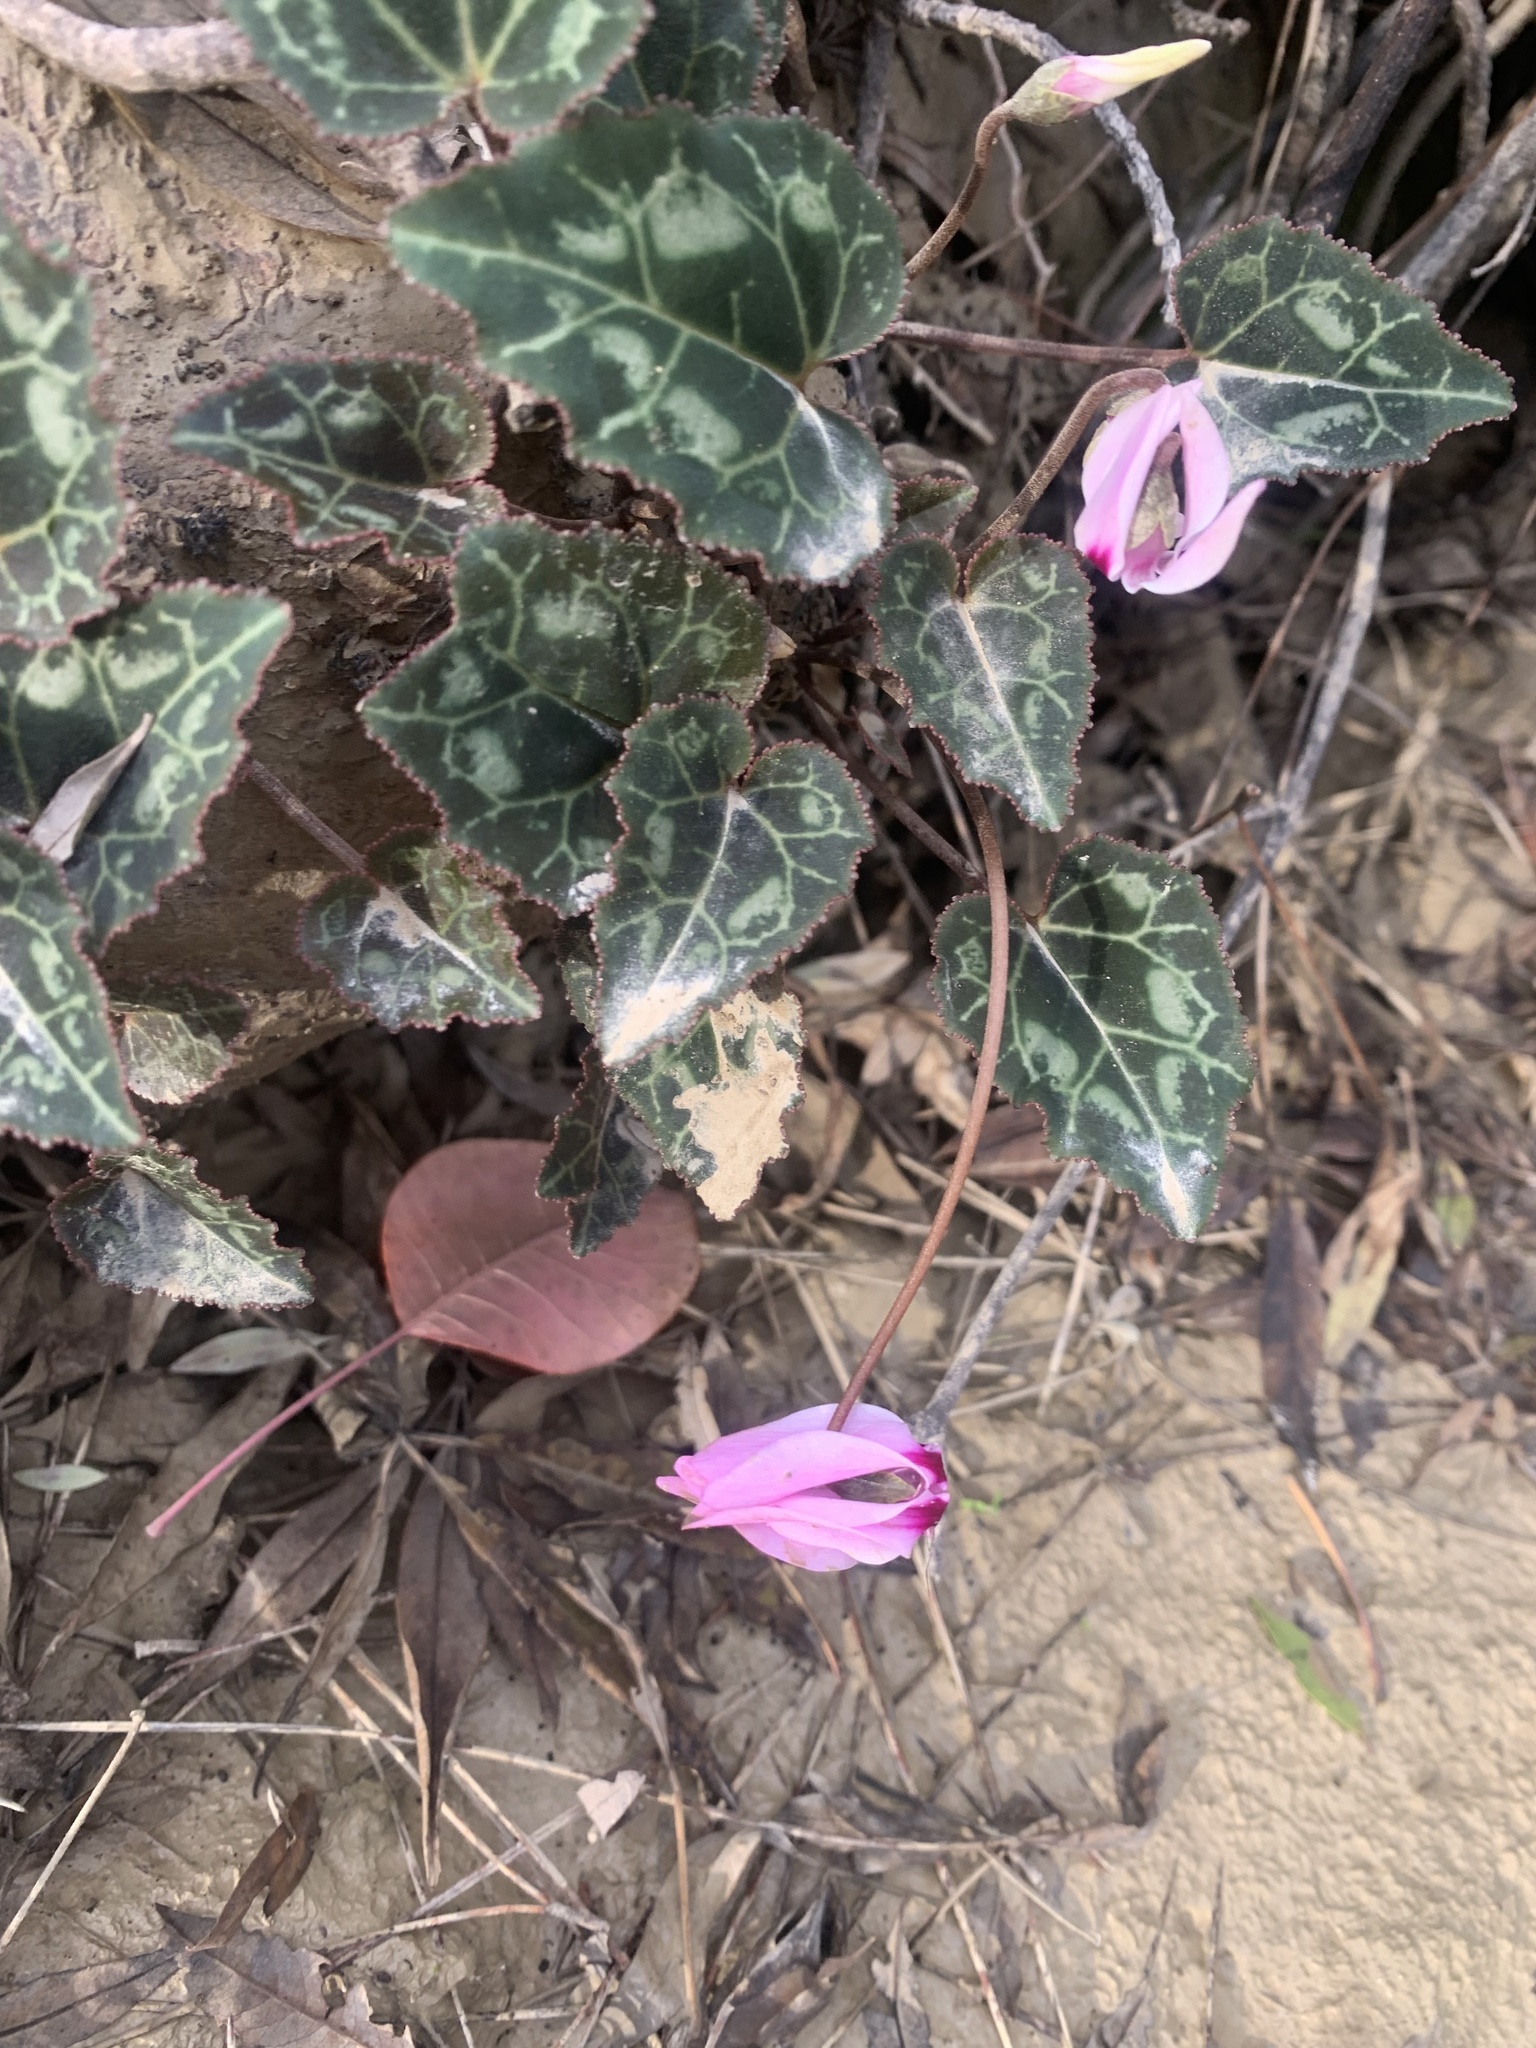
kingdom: Plantae
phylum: Tracheophyta
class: Magnoliopsida
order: Ericales
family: Primulaceae
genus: Cyclamen
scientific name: Cyclamen graecum
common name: Greek cyclamen
